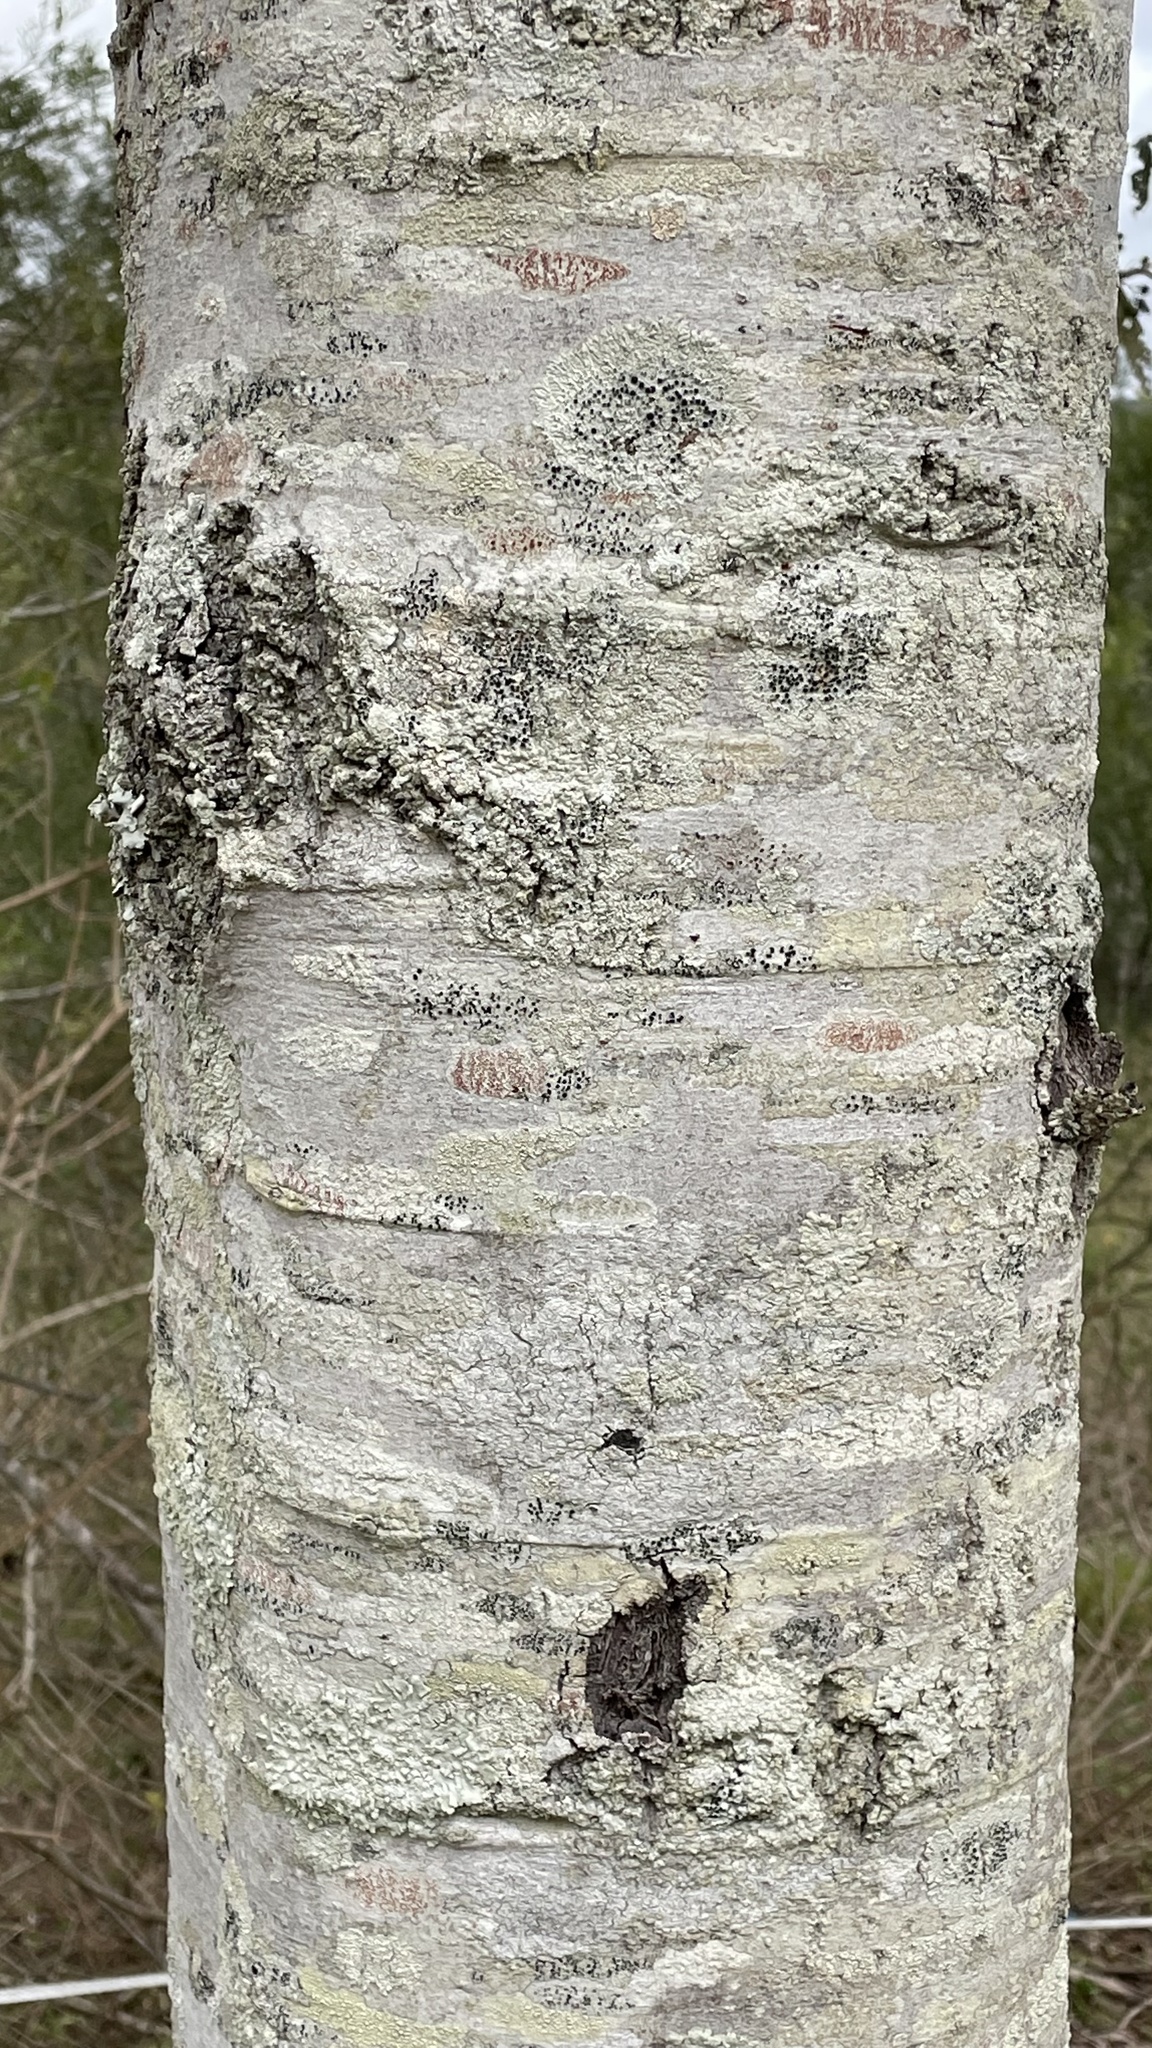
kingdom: Plantae
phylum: Tracheophyta
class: Magnoliopsida
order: Rosales
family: Rhamnaceae
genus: Alphitonia
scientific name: Alphitonia excelsa
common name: Red ash
